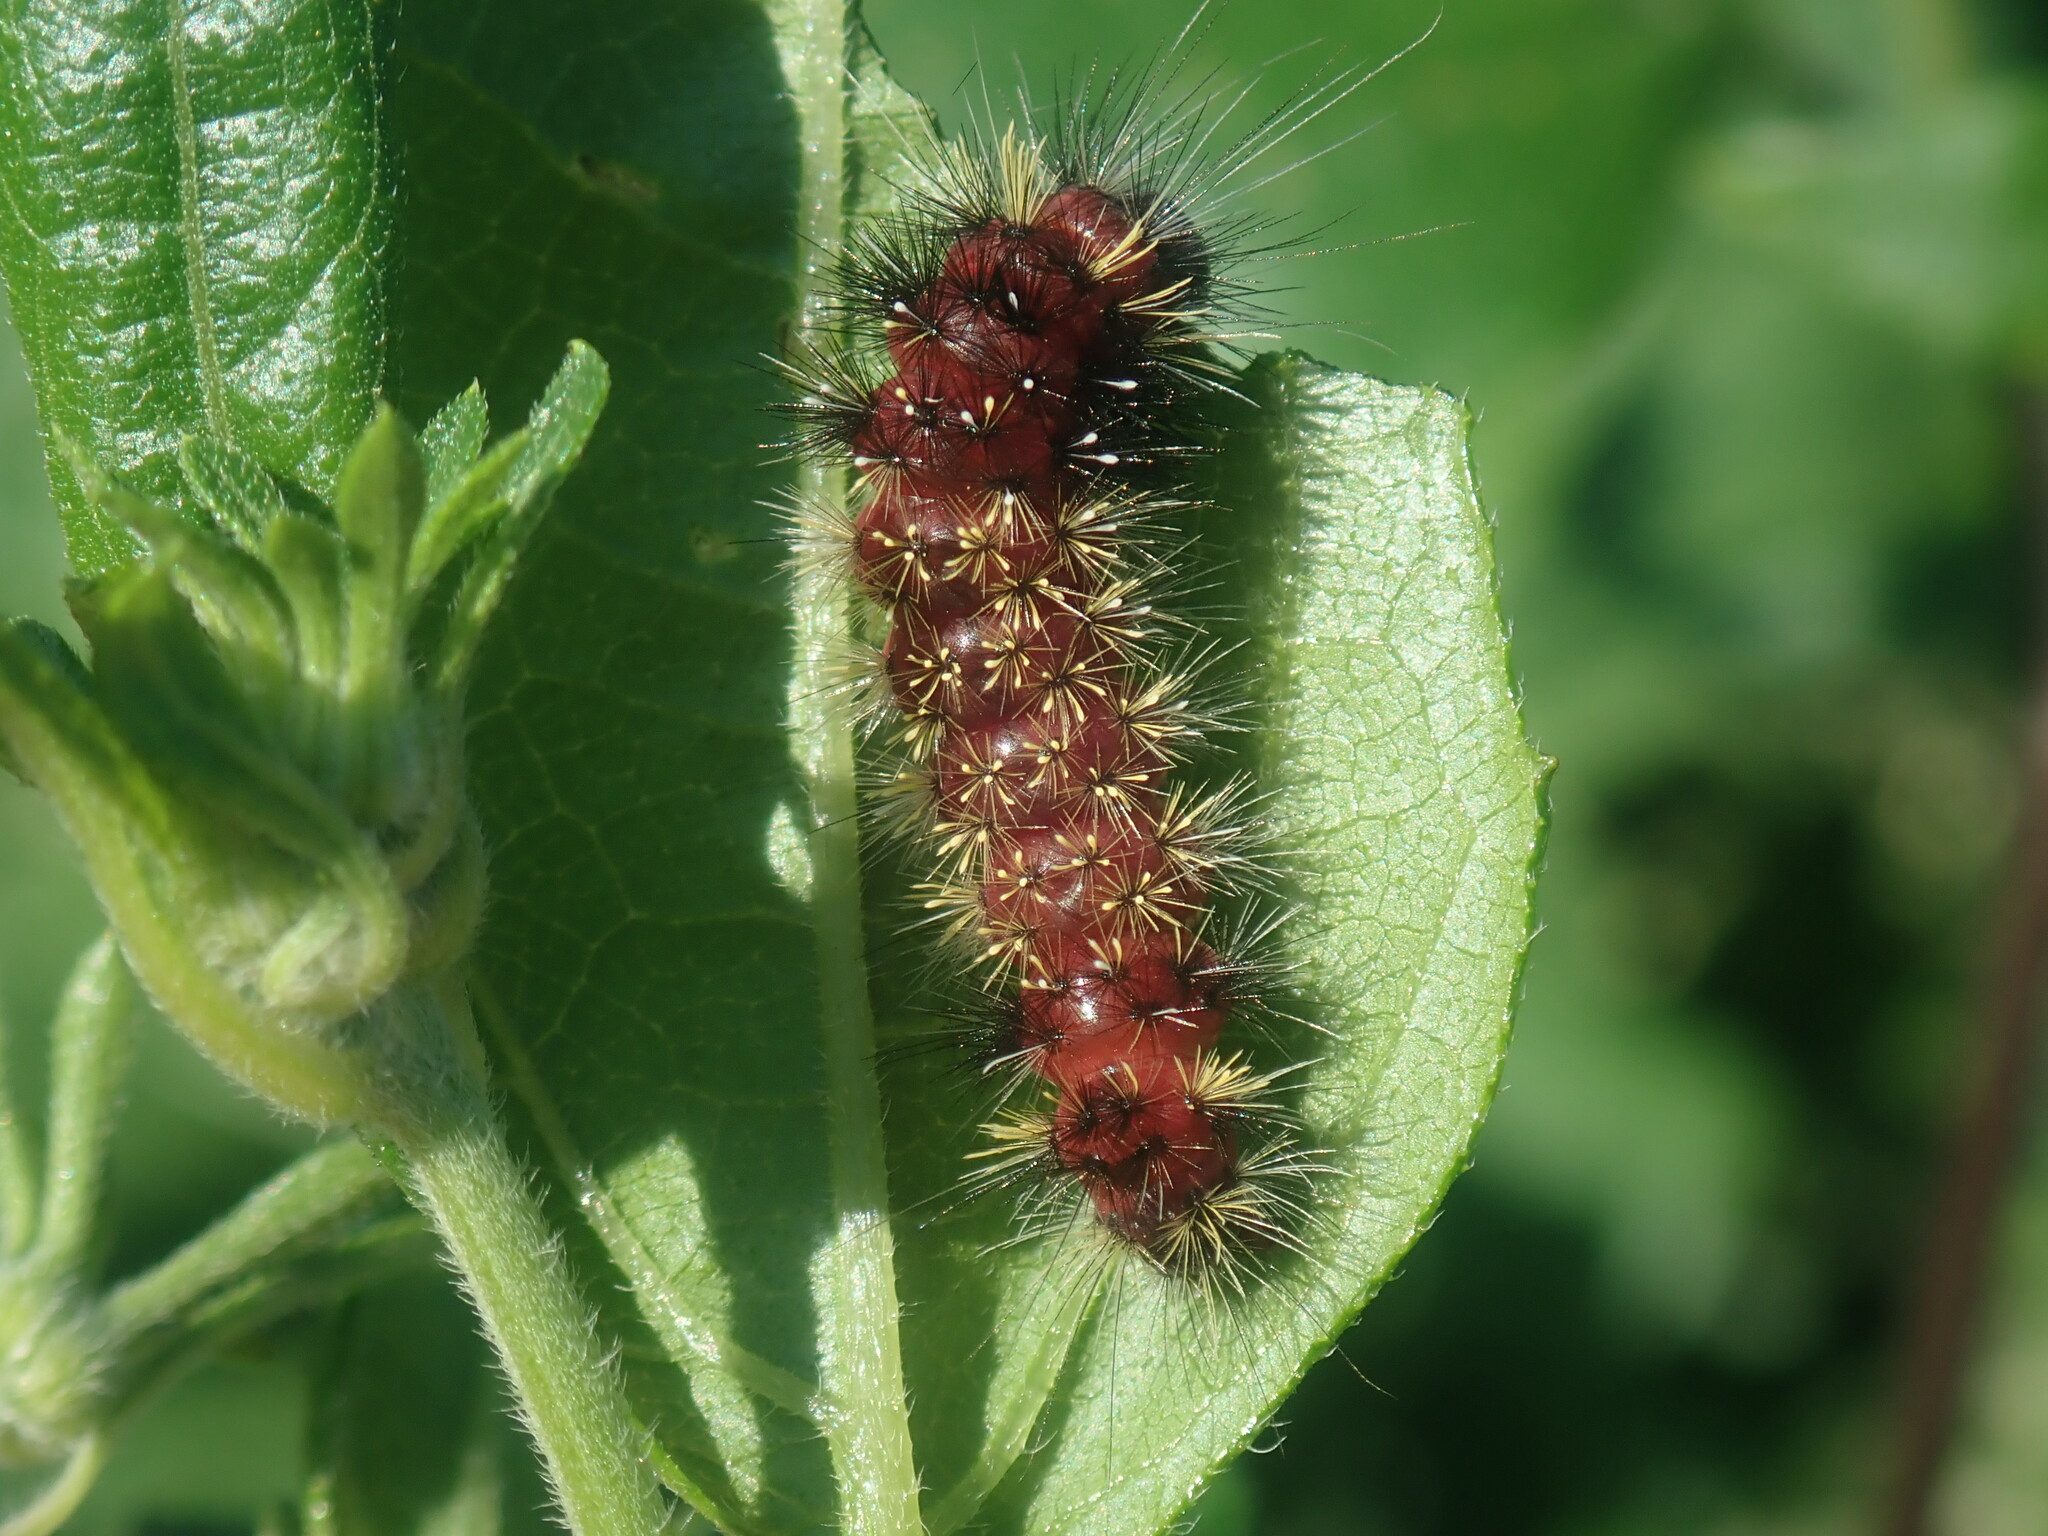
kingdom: Animalia
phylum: Arthropoda
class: Insecta
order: Lepidoptera
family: Erebidae
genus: Hypocrisias
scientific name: Hypocrisias minima
